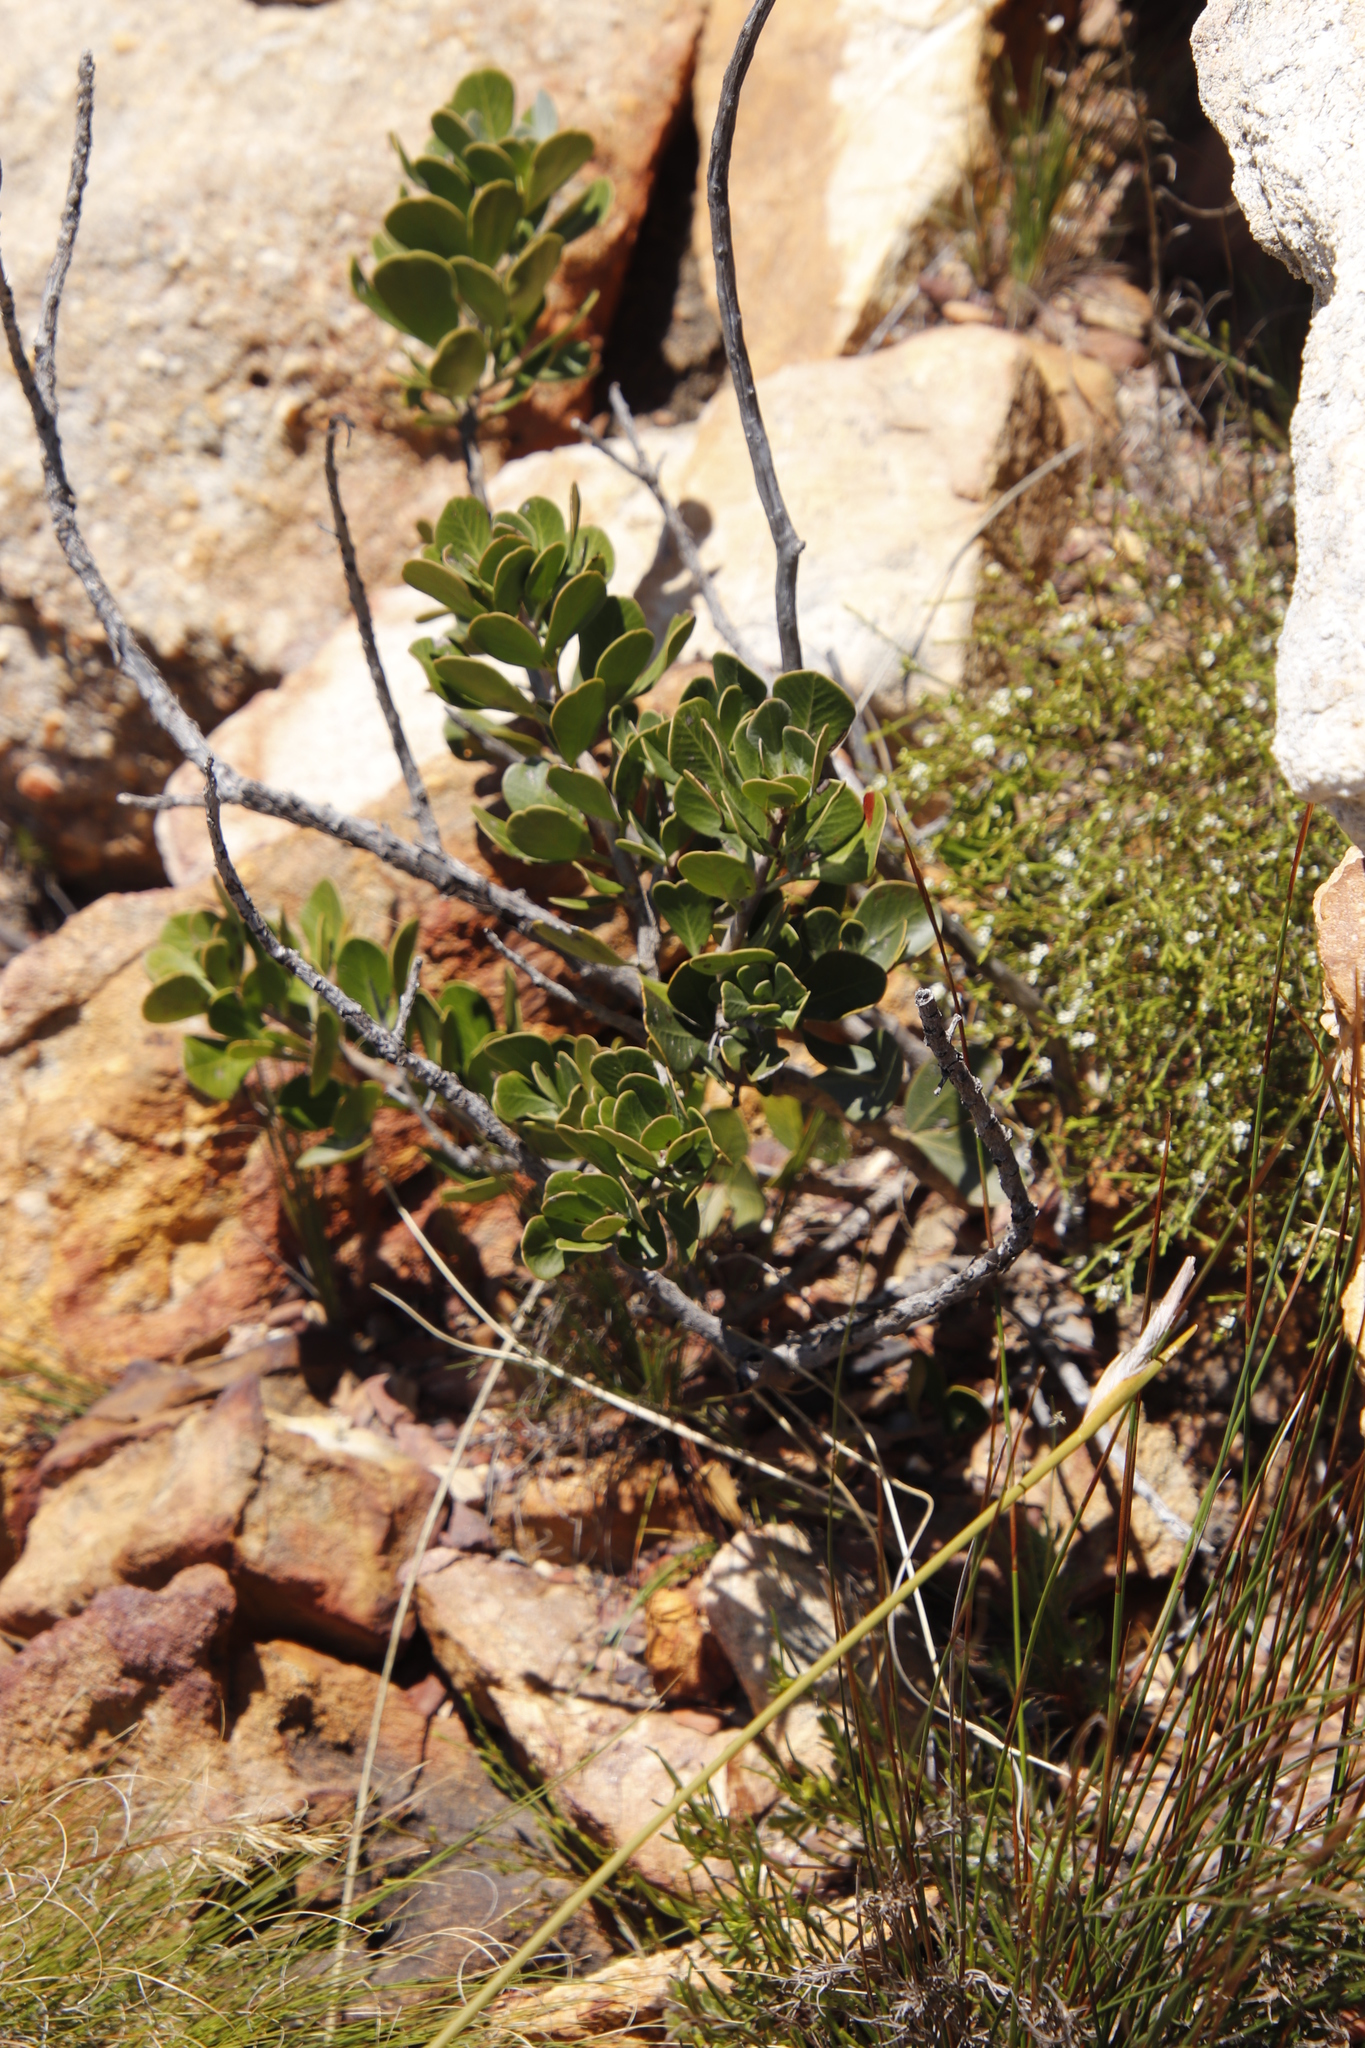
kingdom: Plantae
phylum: Tracheophyta
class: Magnoliopsida
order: Sapindales
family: Anacardiaceae
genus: Searsia
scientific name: Searsia scytophylla
